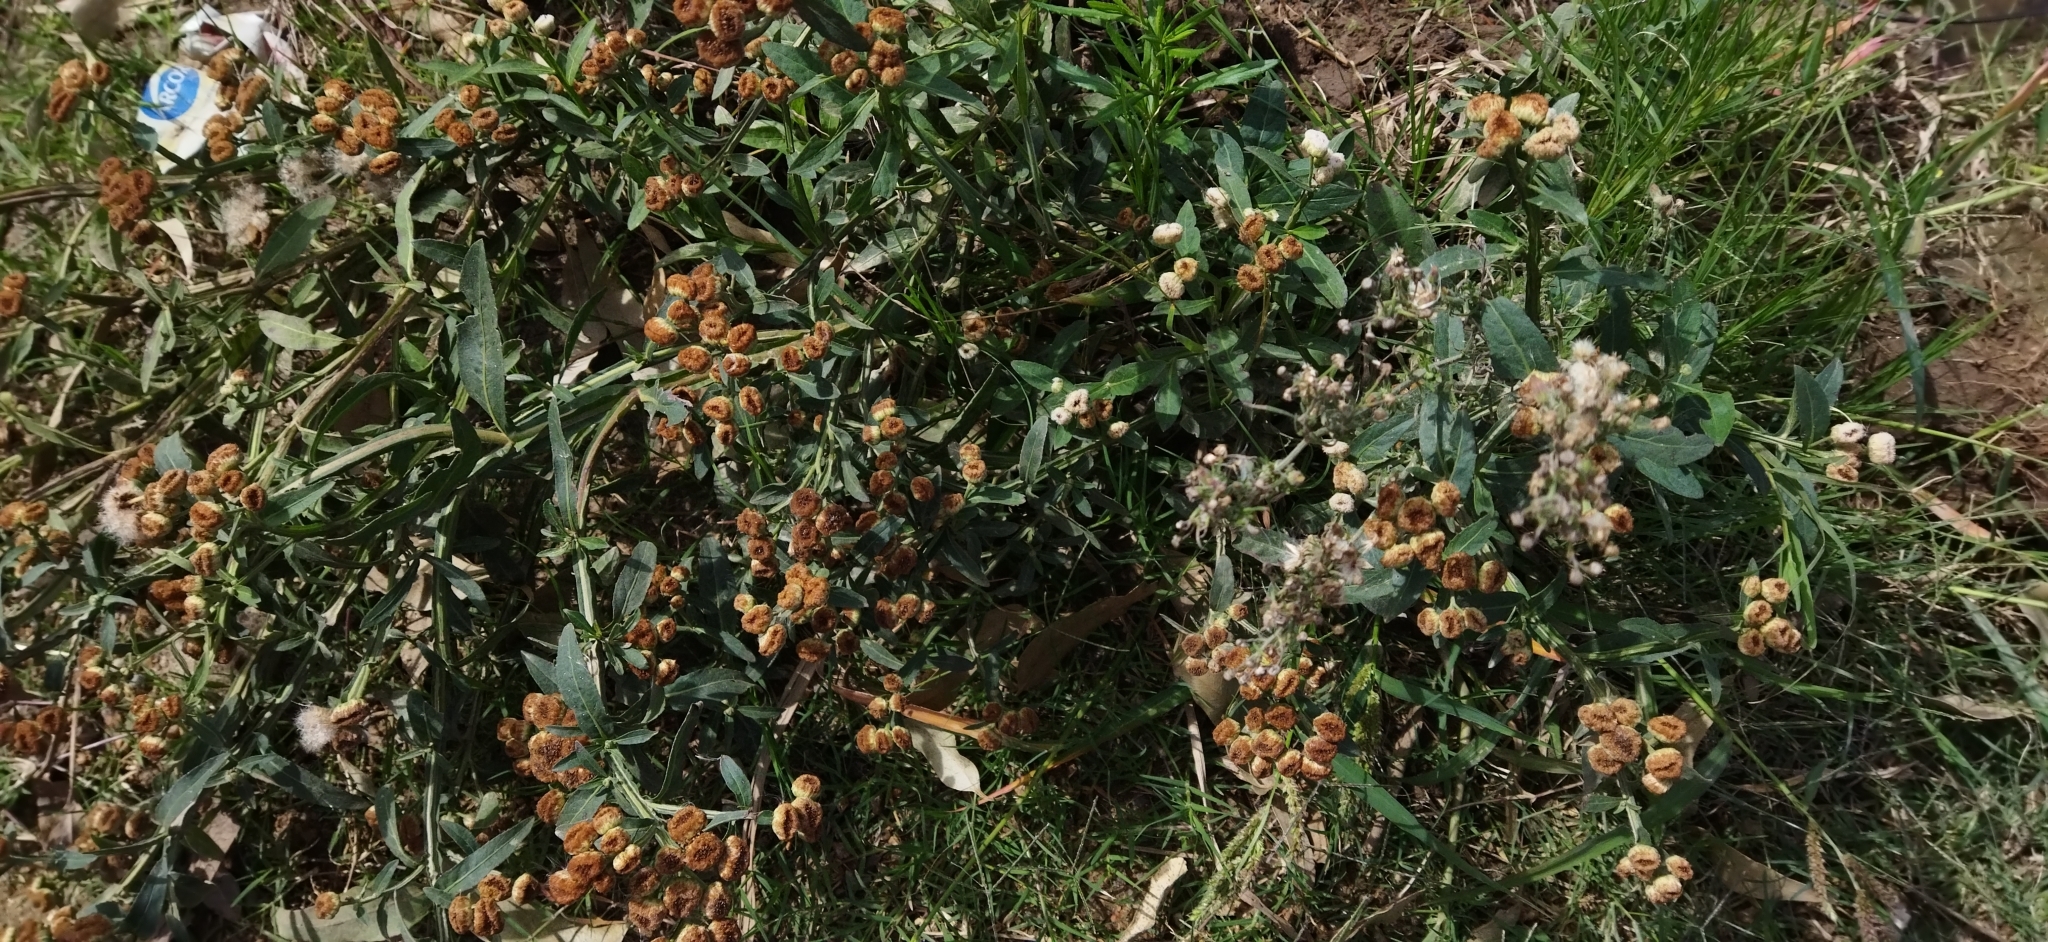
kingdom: Plantae
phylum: Tracheophyta
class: Magnoliopsida
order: Asterales
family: Asteraceae
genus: Pluchea
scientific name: Pluchea sagittalis
